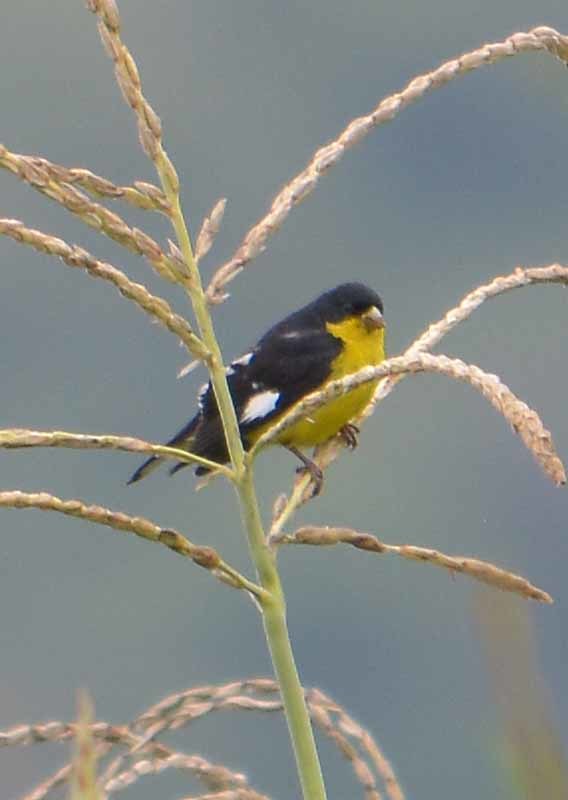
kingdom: Animalia
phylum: Chordata
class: Aves
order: Passeriformes
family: Fringillidae
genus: Spinus
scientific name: Spinus psaltria
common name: Lesser goldfinch
